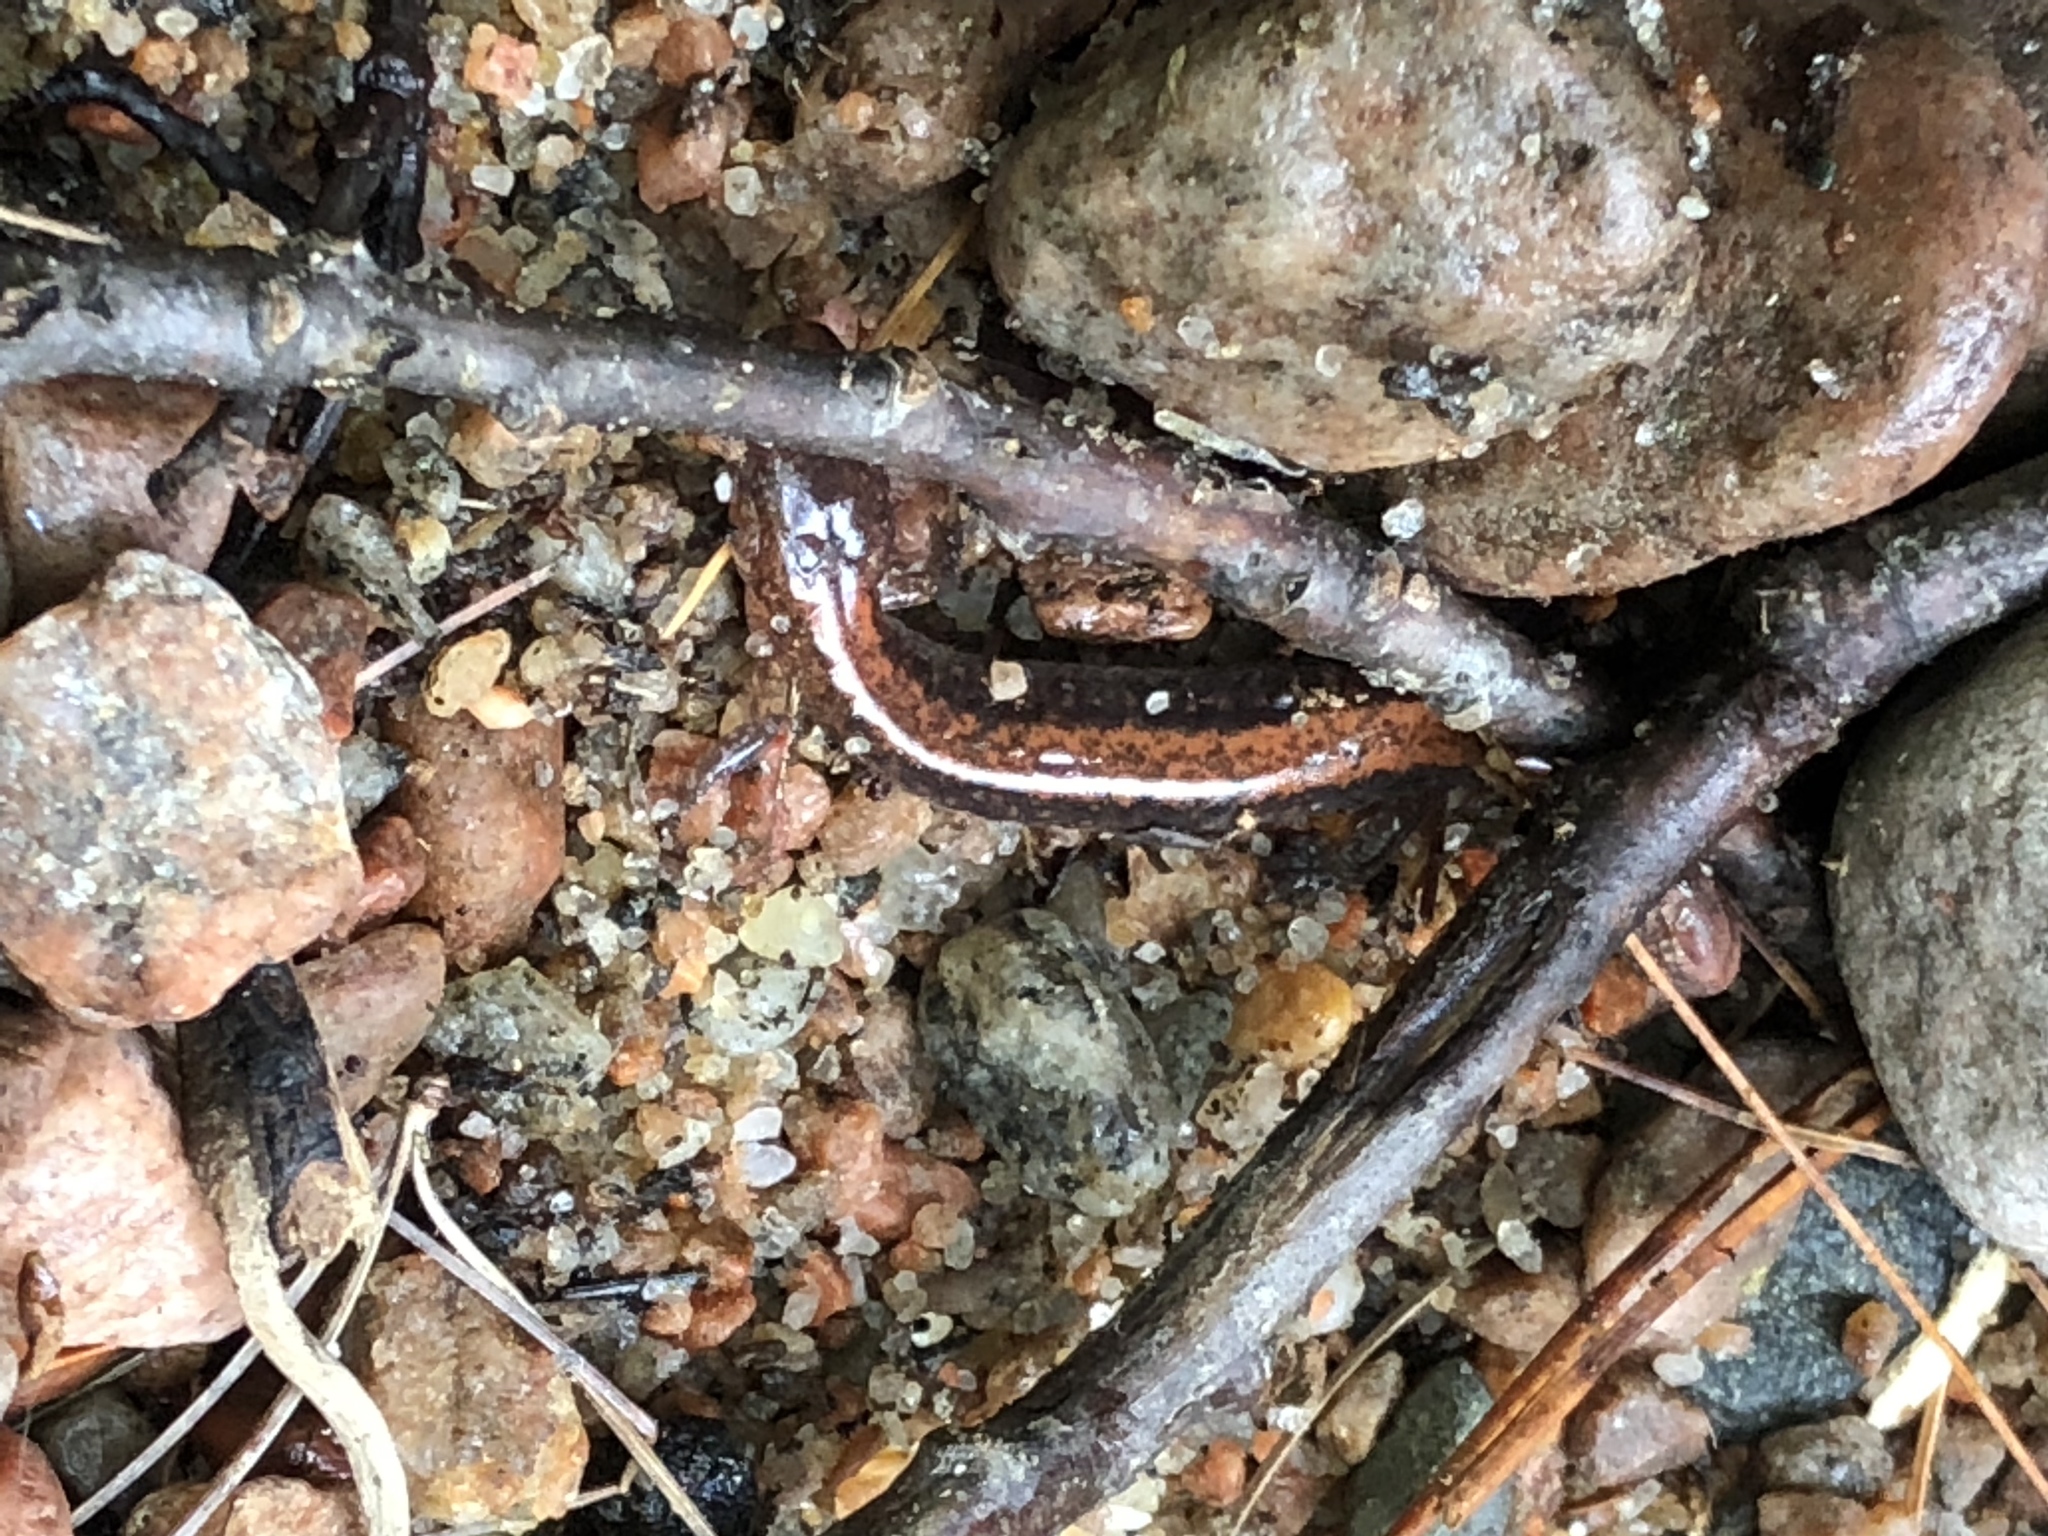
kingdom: Animalia
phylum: Chordata
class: Amphibia
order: Caudata
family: Plethodontidae
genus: Plethodon
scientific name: Plethodon cinereus
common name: Redback salamander
